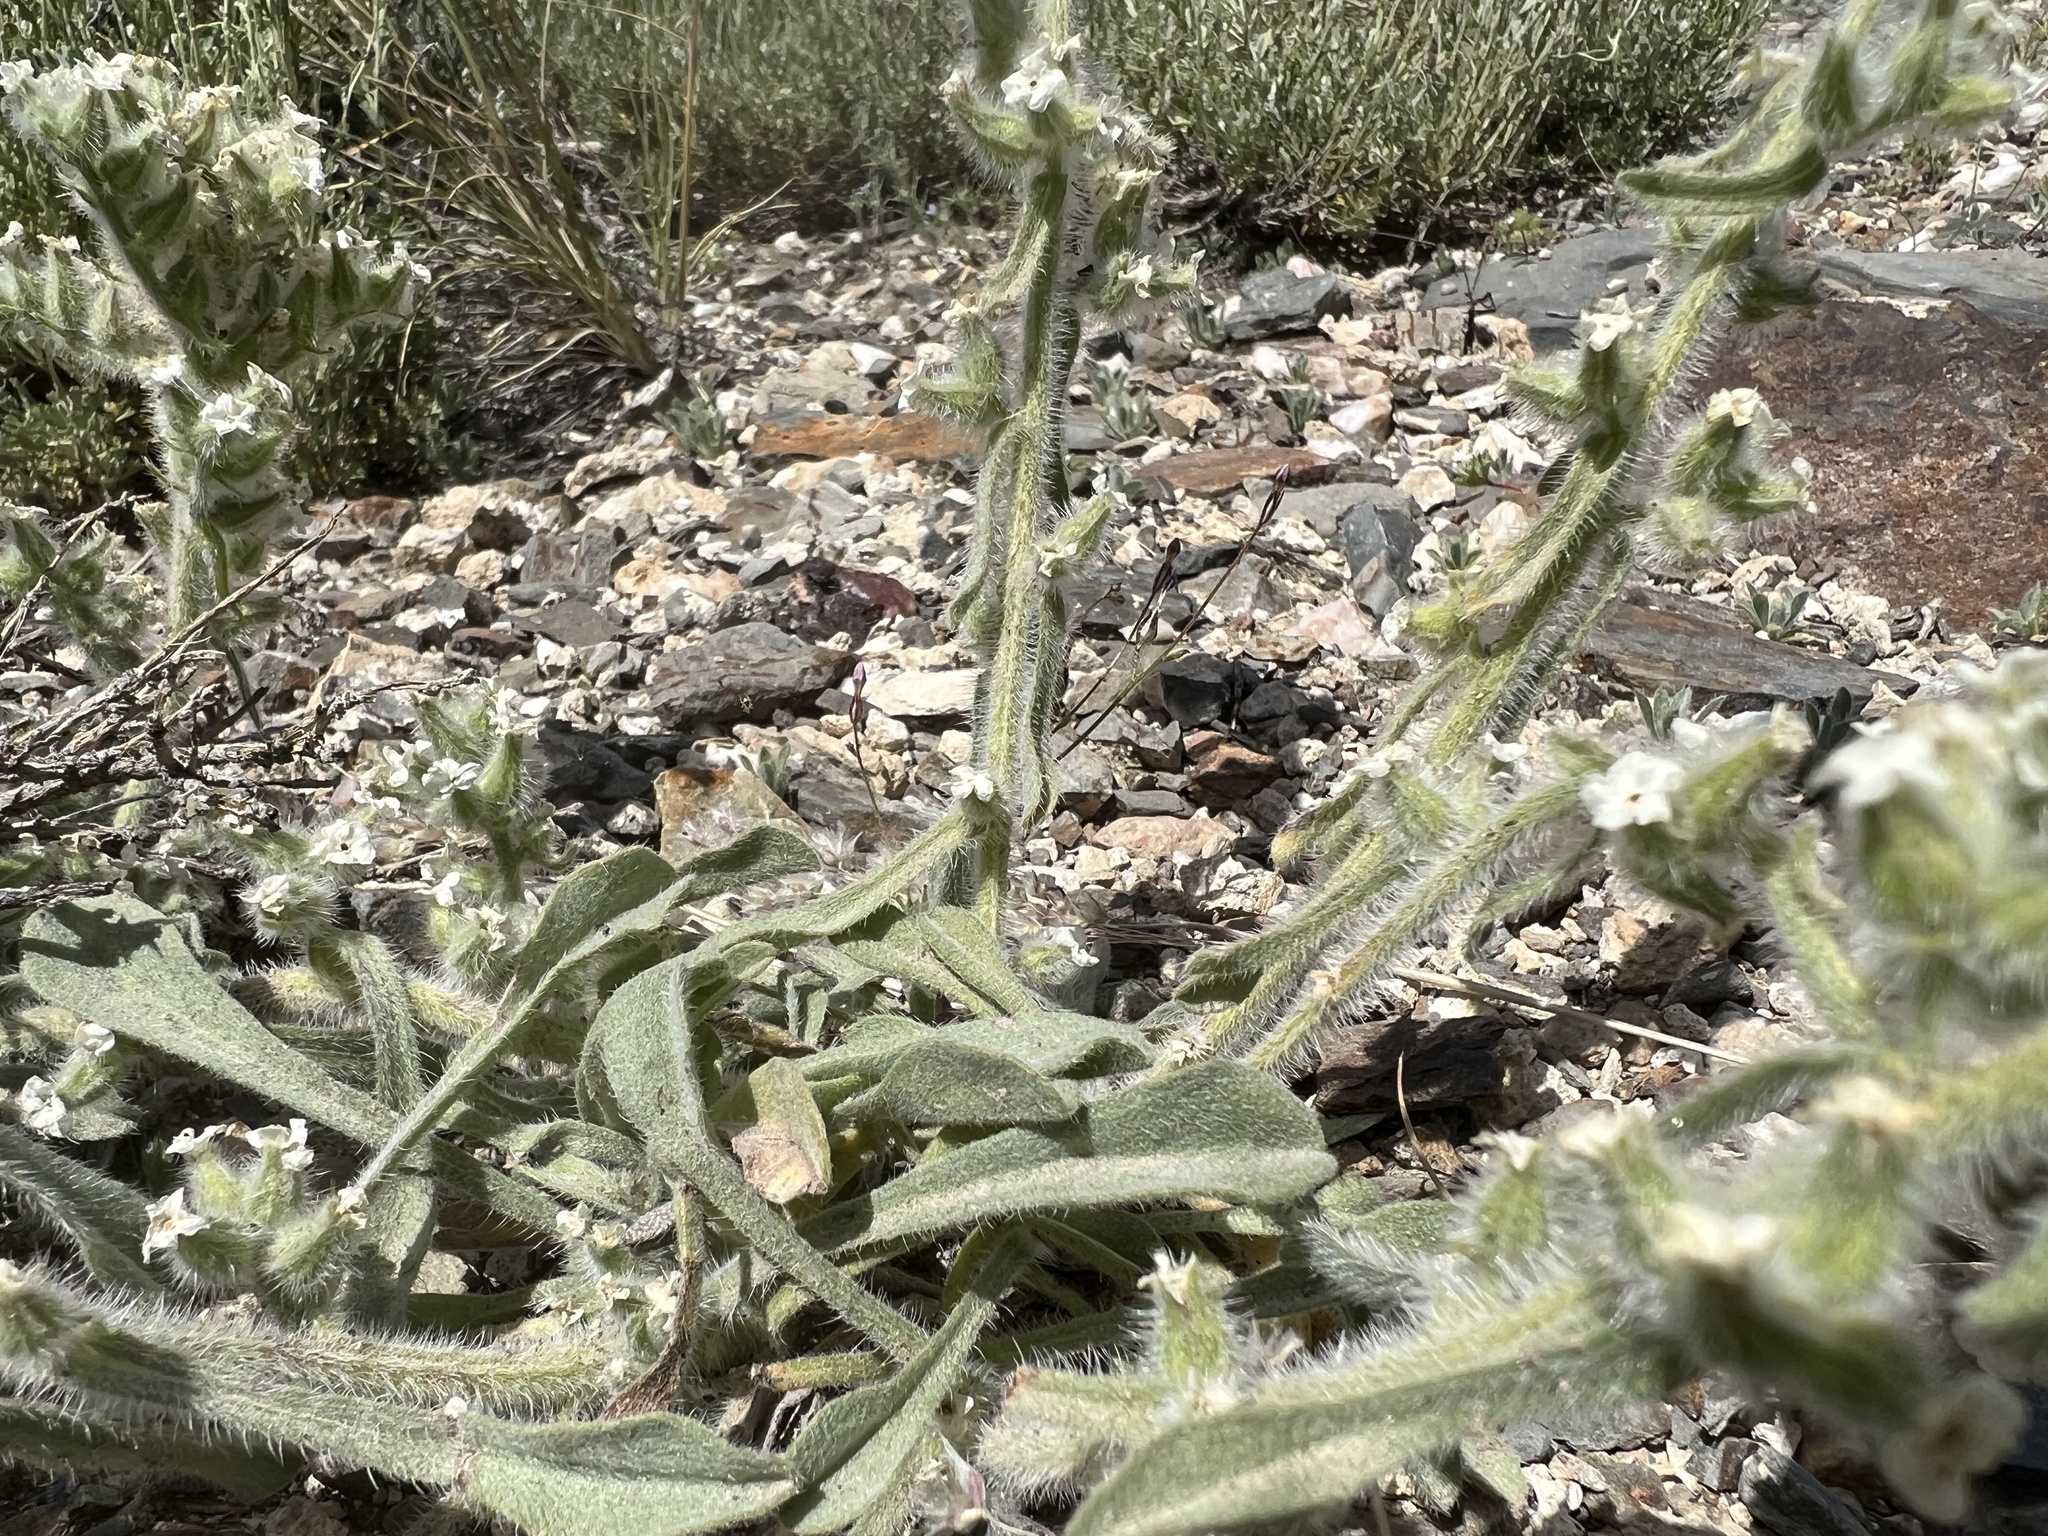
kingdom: Plantae
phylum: Tracheophyta
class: Magnoliopsida
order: Boraginales
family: Boraginaceae
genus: Oreocarya
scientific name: Oreocarya hoffmannii
